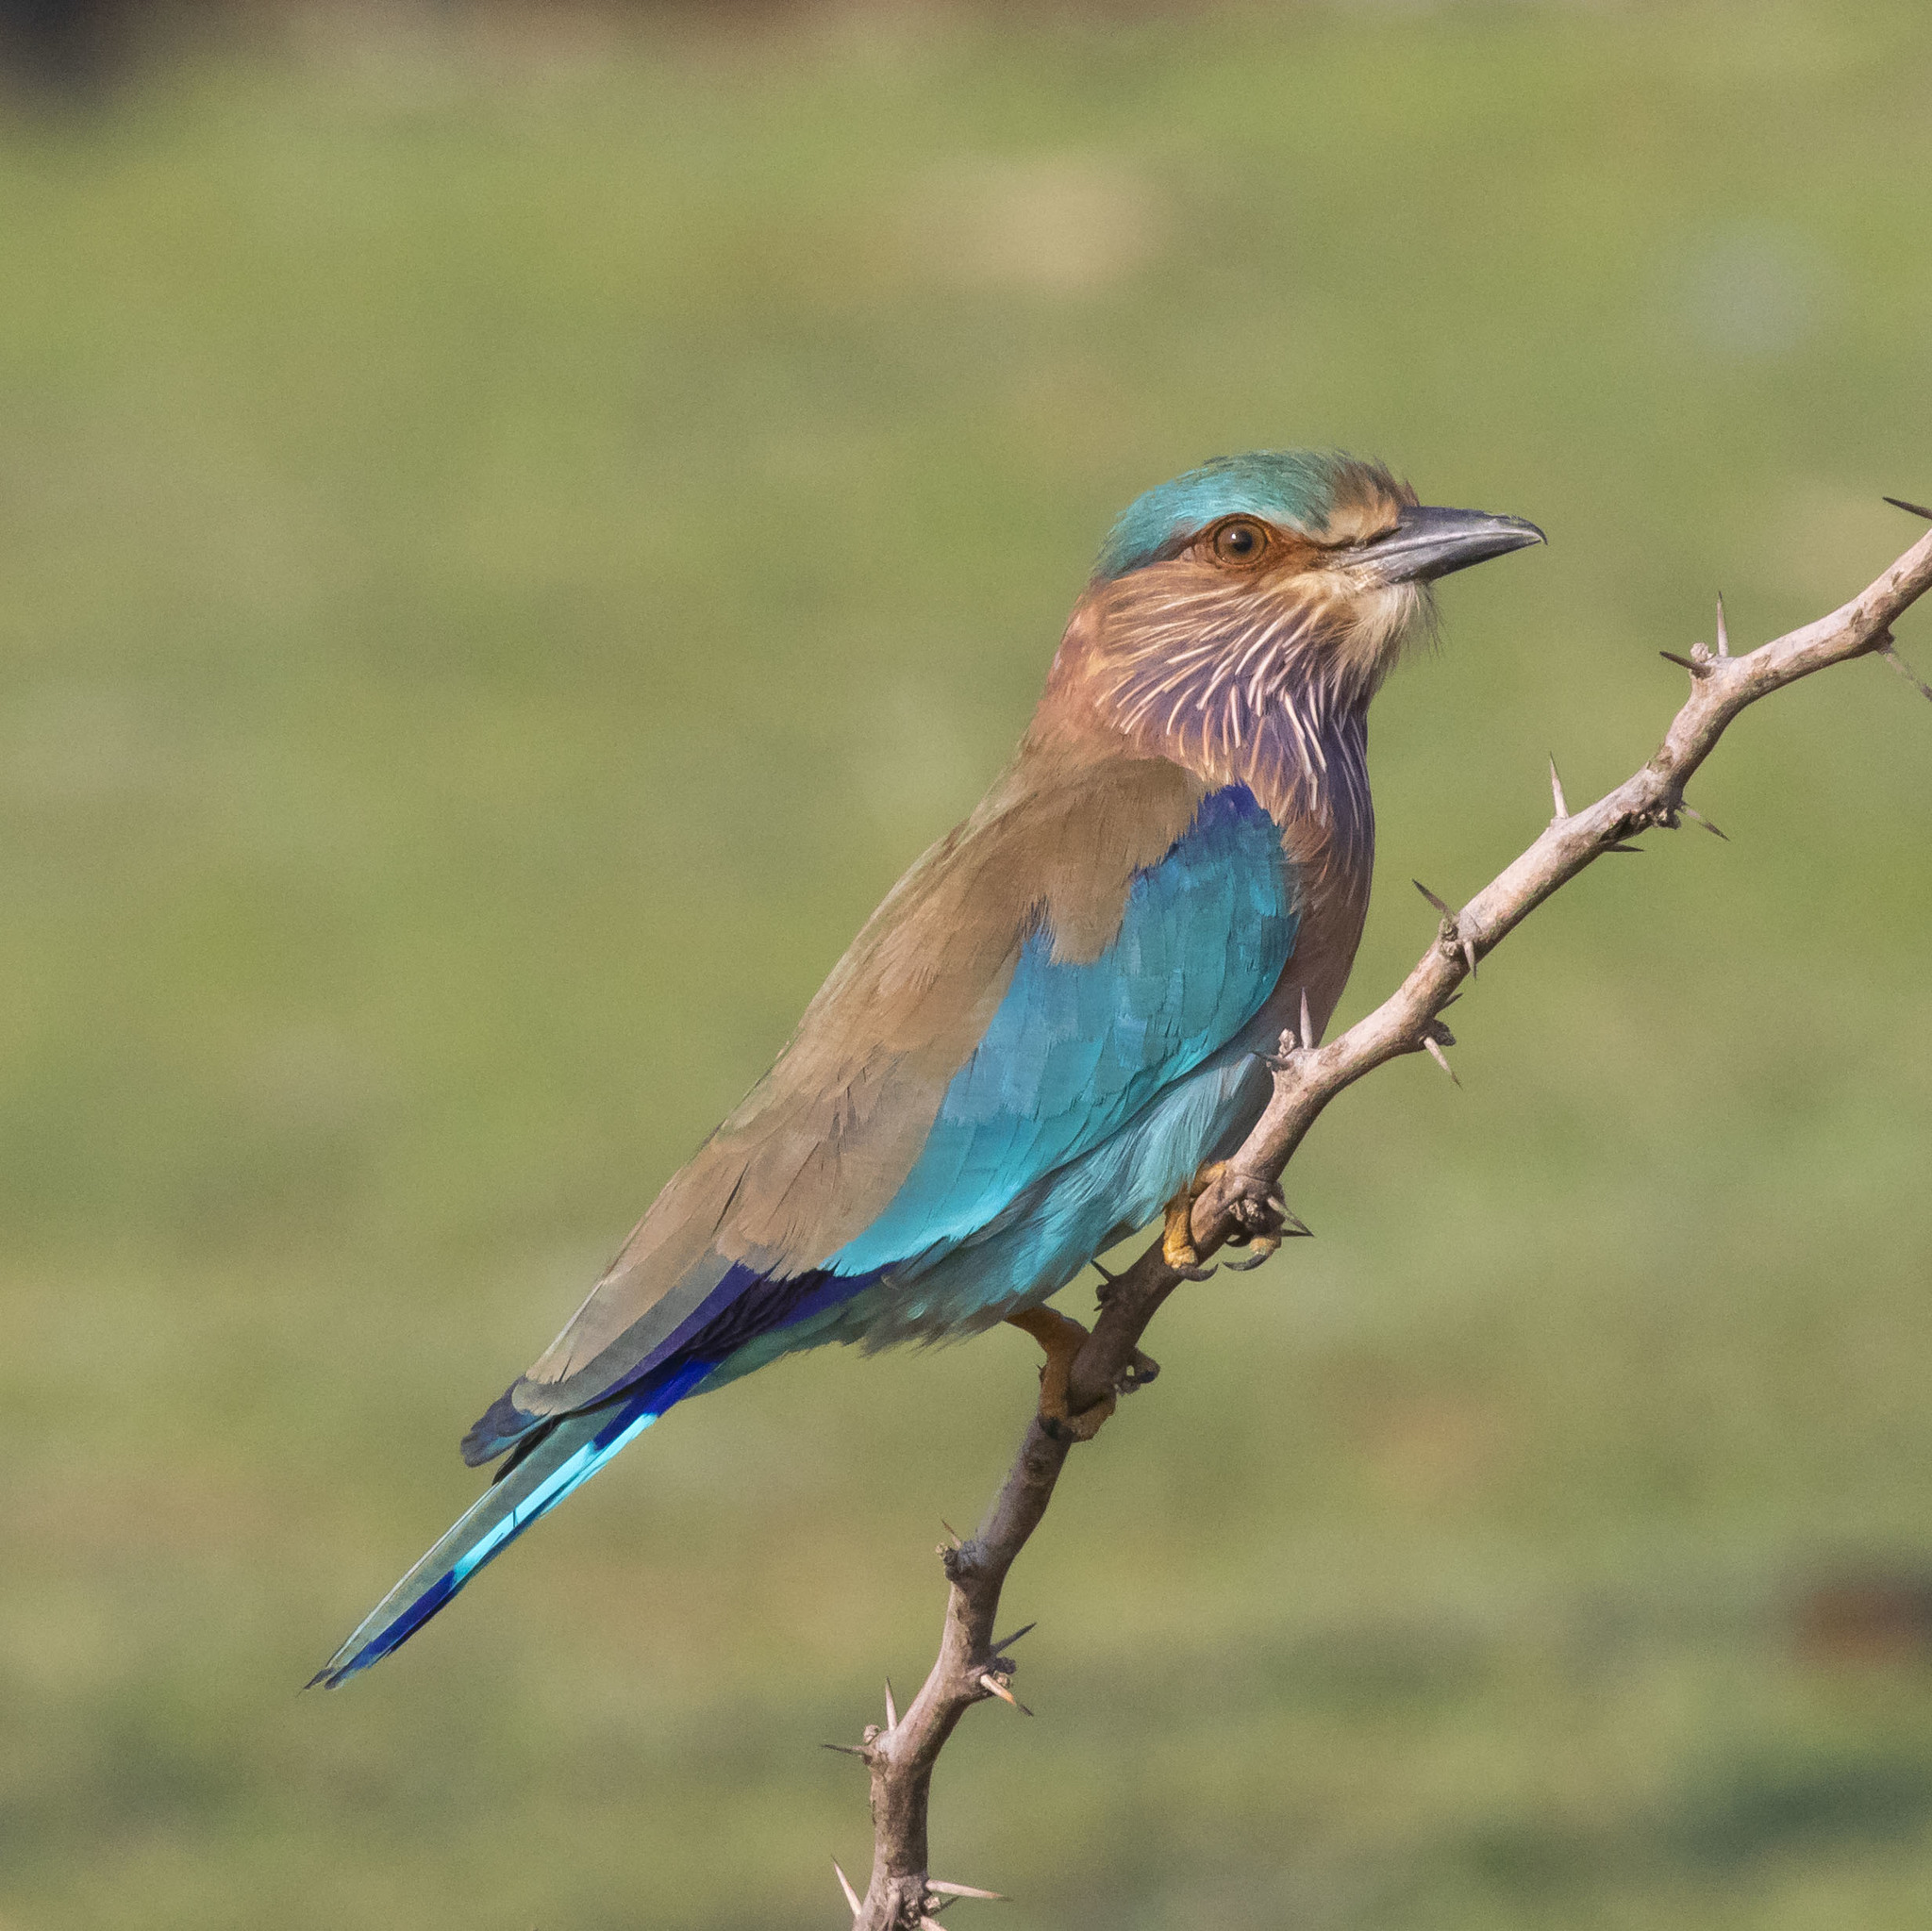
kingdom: Animalia
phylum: Chordata
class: Aves
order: Coraciiformes
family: Coraciidae
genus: Coracias
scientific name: Coracias benghalensis
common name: Indian roller
